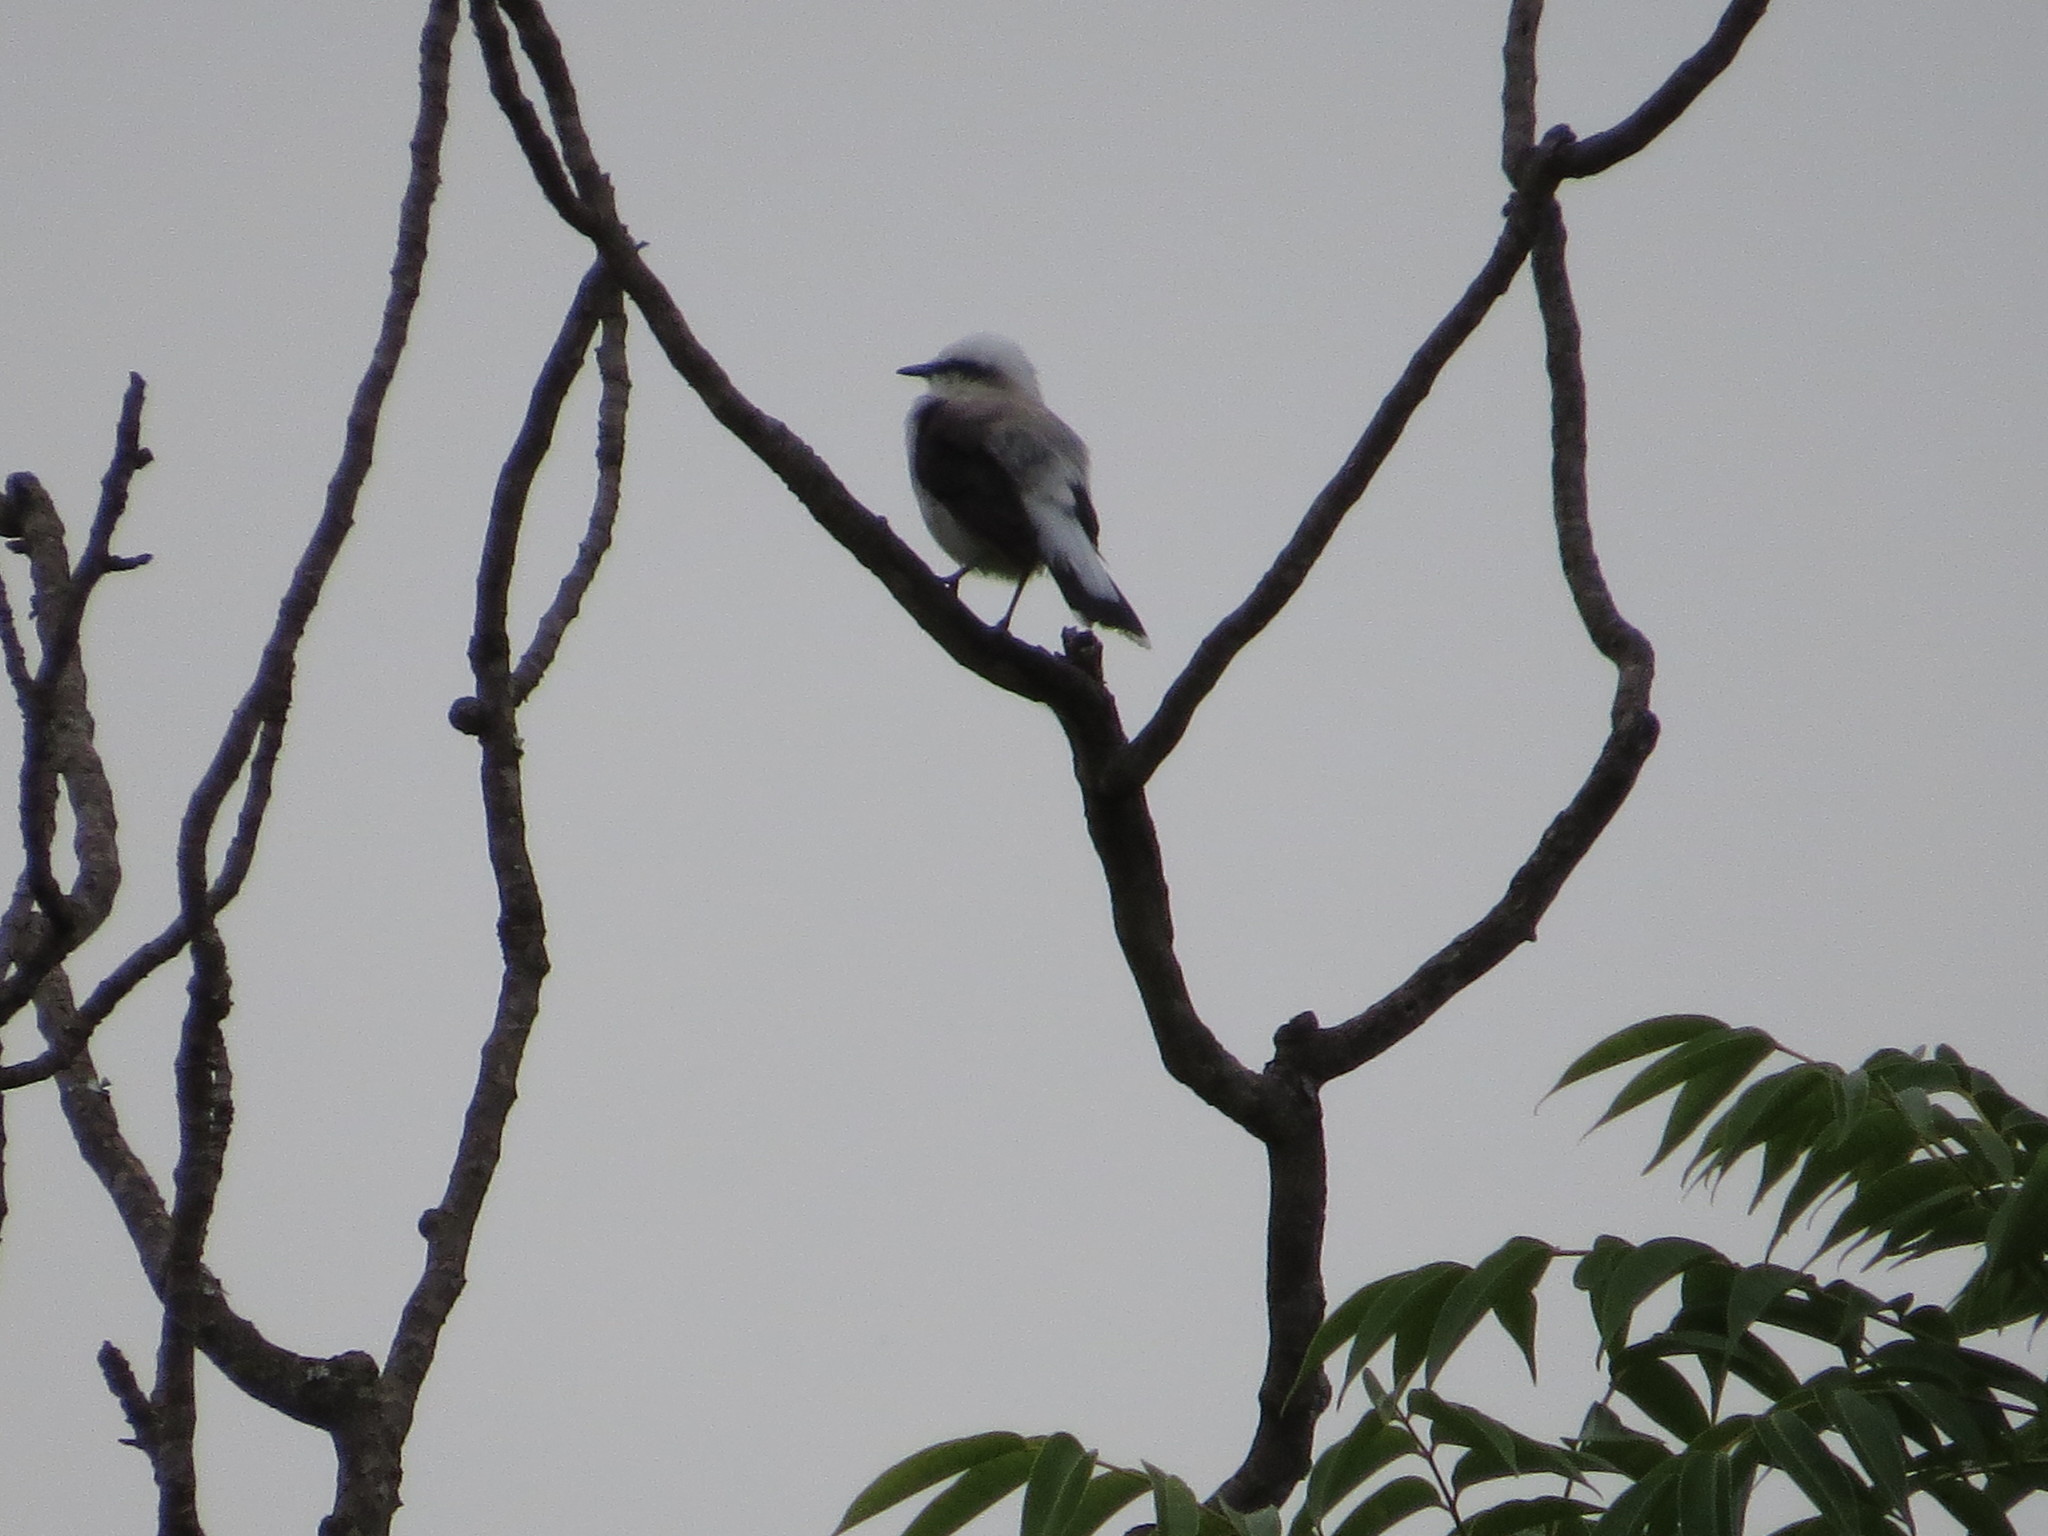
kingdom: Animalia
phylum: Chordata
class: Aves
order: Passeriformes
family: Tyrannidae
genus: Fluvicola
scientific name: Fluvicola nengeta
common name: Masked water tyrant
